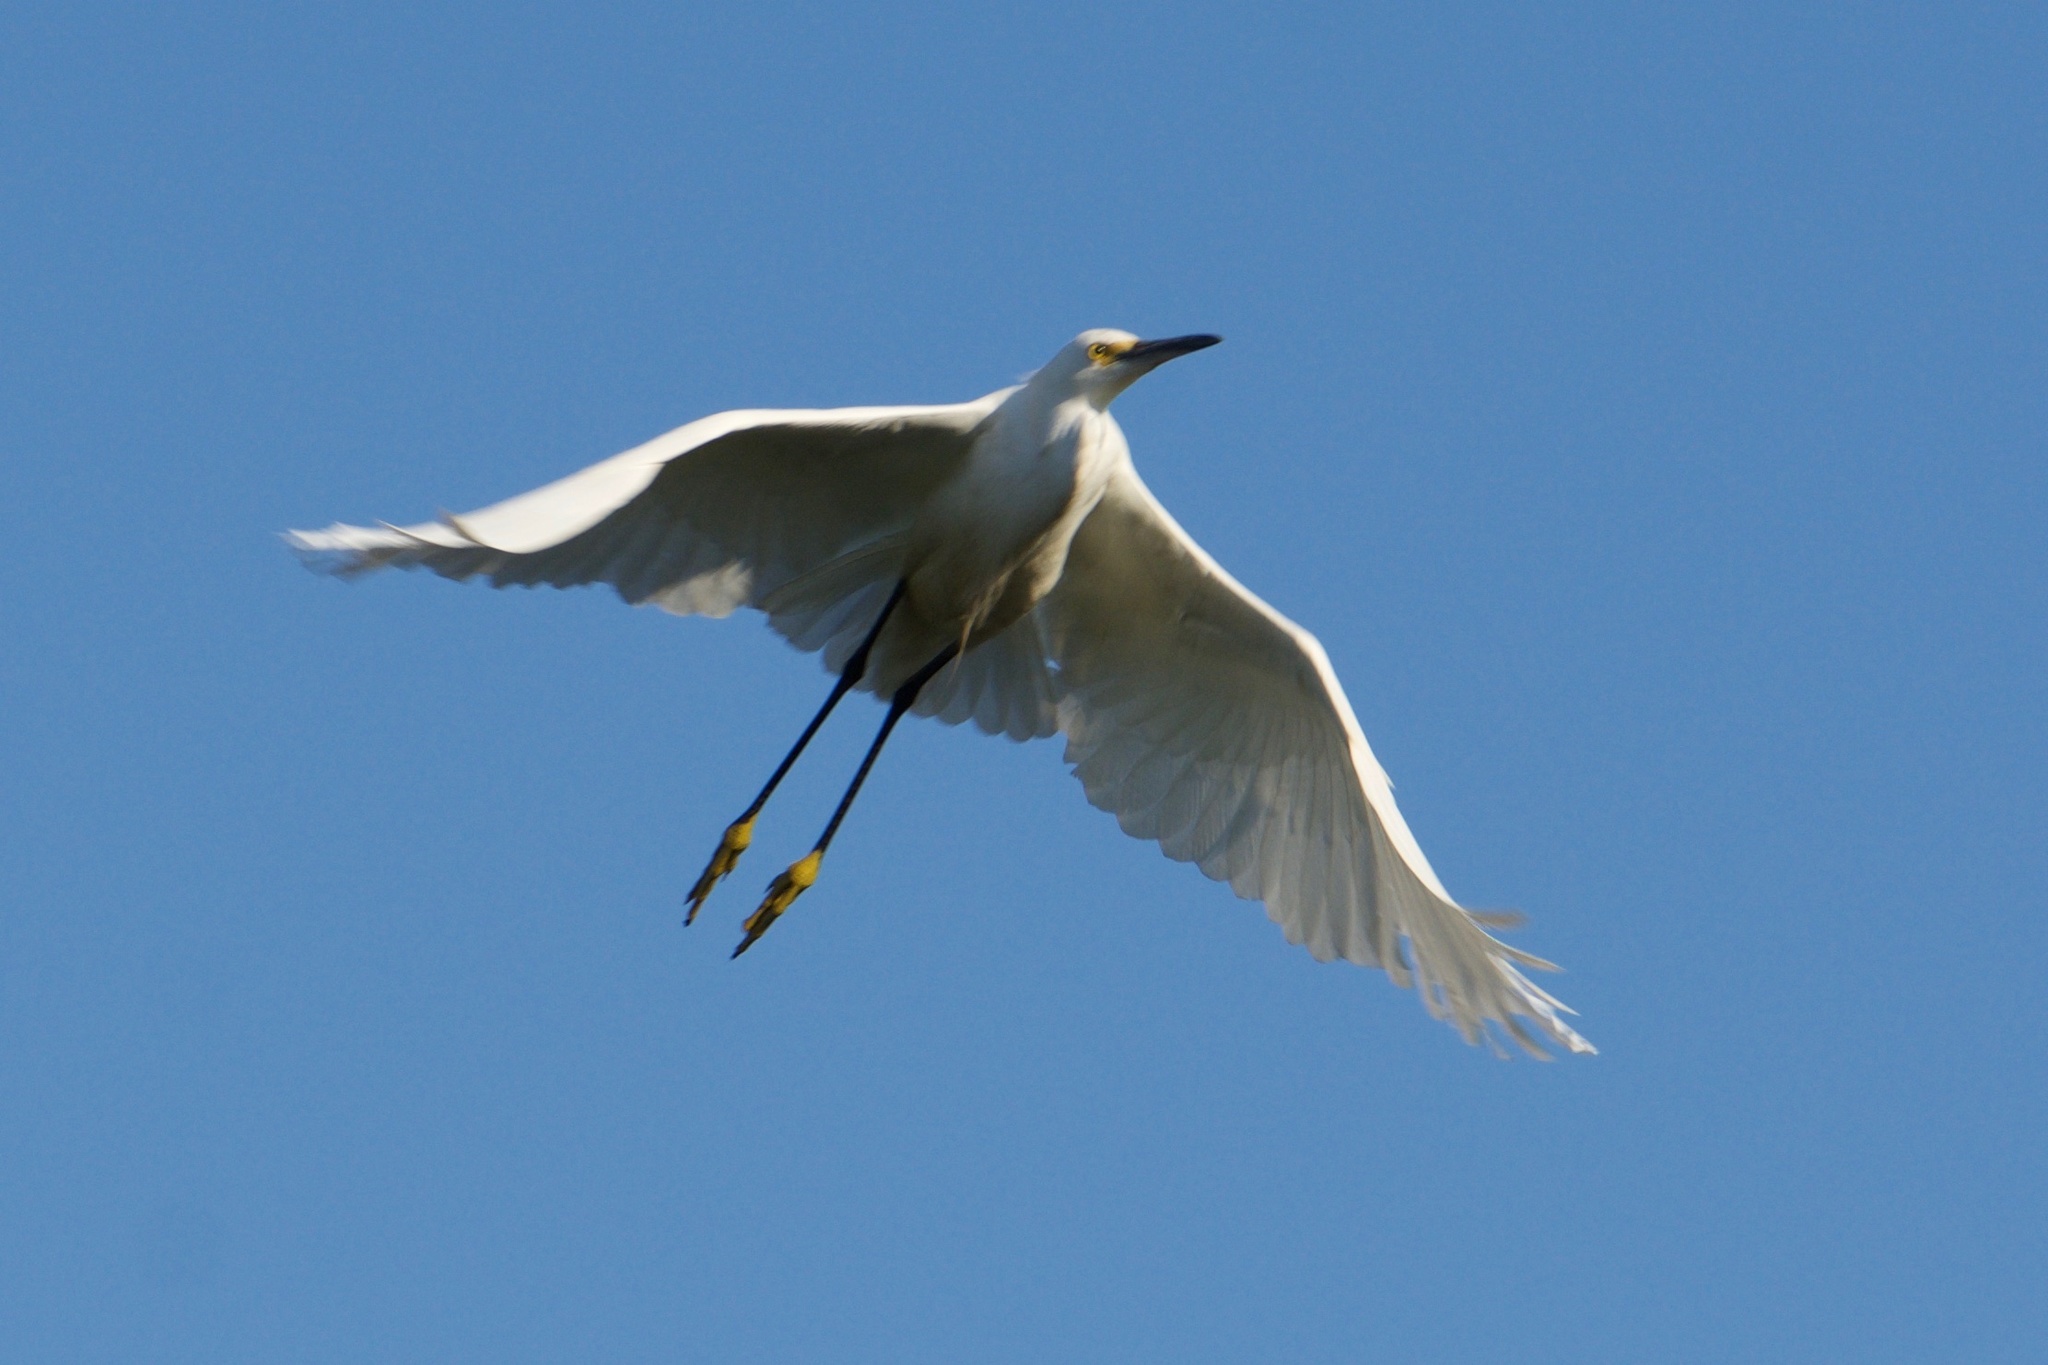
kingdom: Animalia
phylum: Chordata
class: Aves
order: Pelecaniformes
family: Ardeidae
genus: Egretta
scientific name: Egretta thula
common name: Snowy egret
